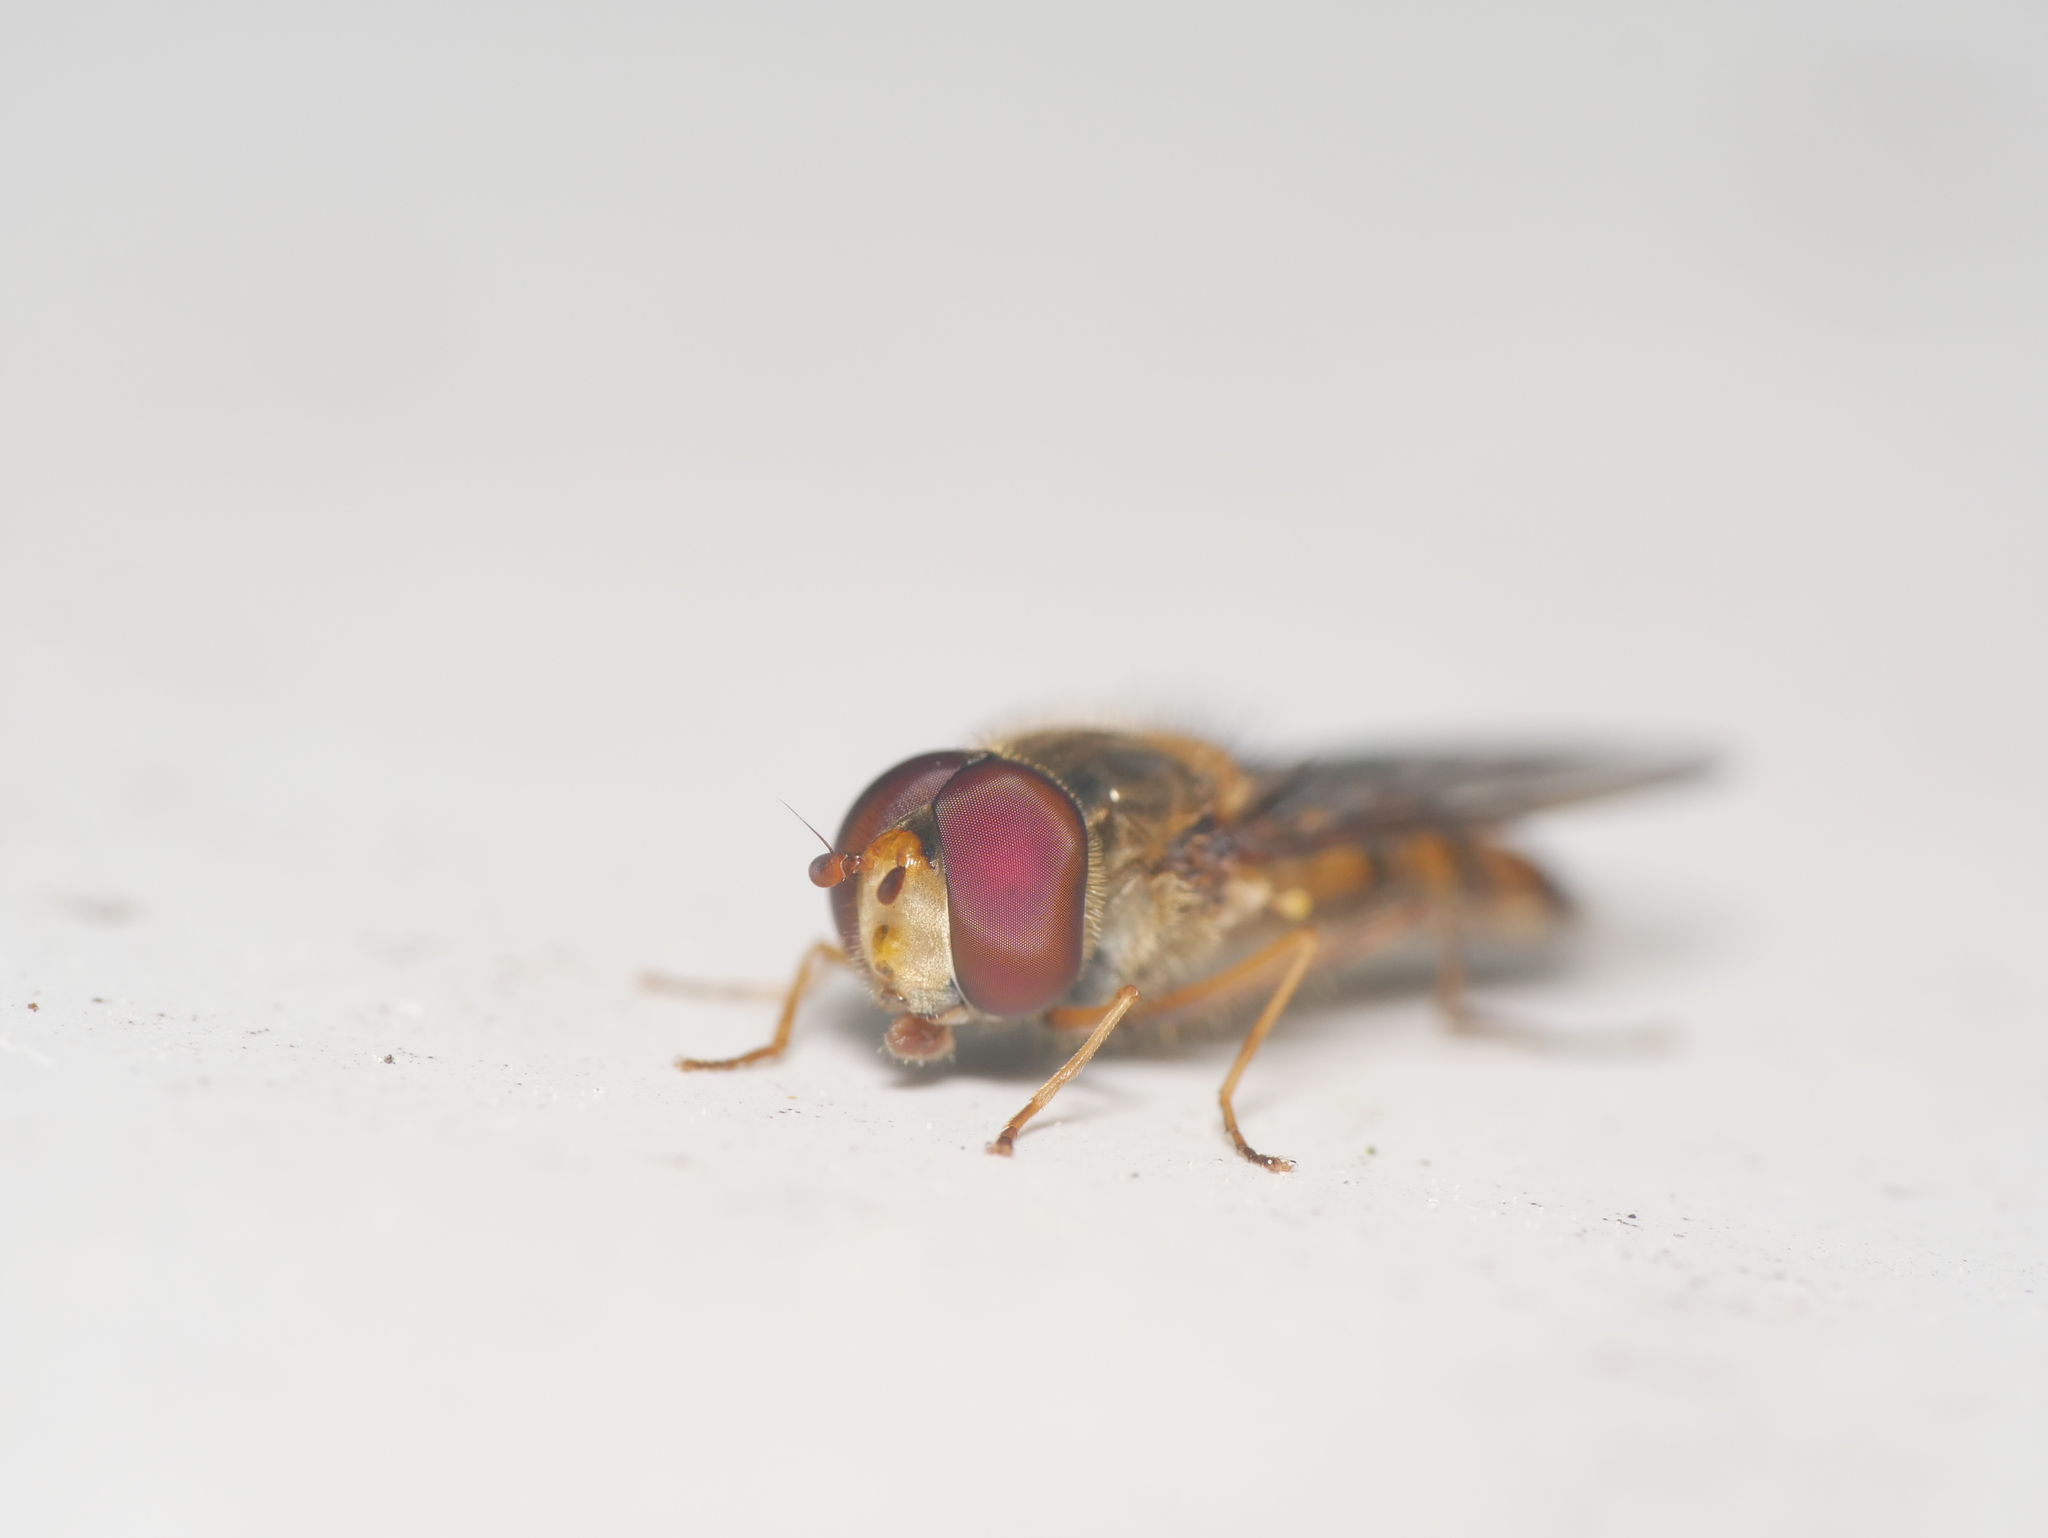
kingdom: Animalia
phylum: Arthropoda
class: Insecta
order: Diptera
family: Syrphidae
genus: Episyrphus
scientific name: Episyrphus balteatus
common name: Marmalade hoverfly
